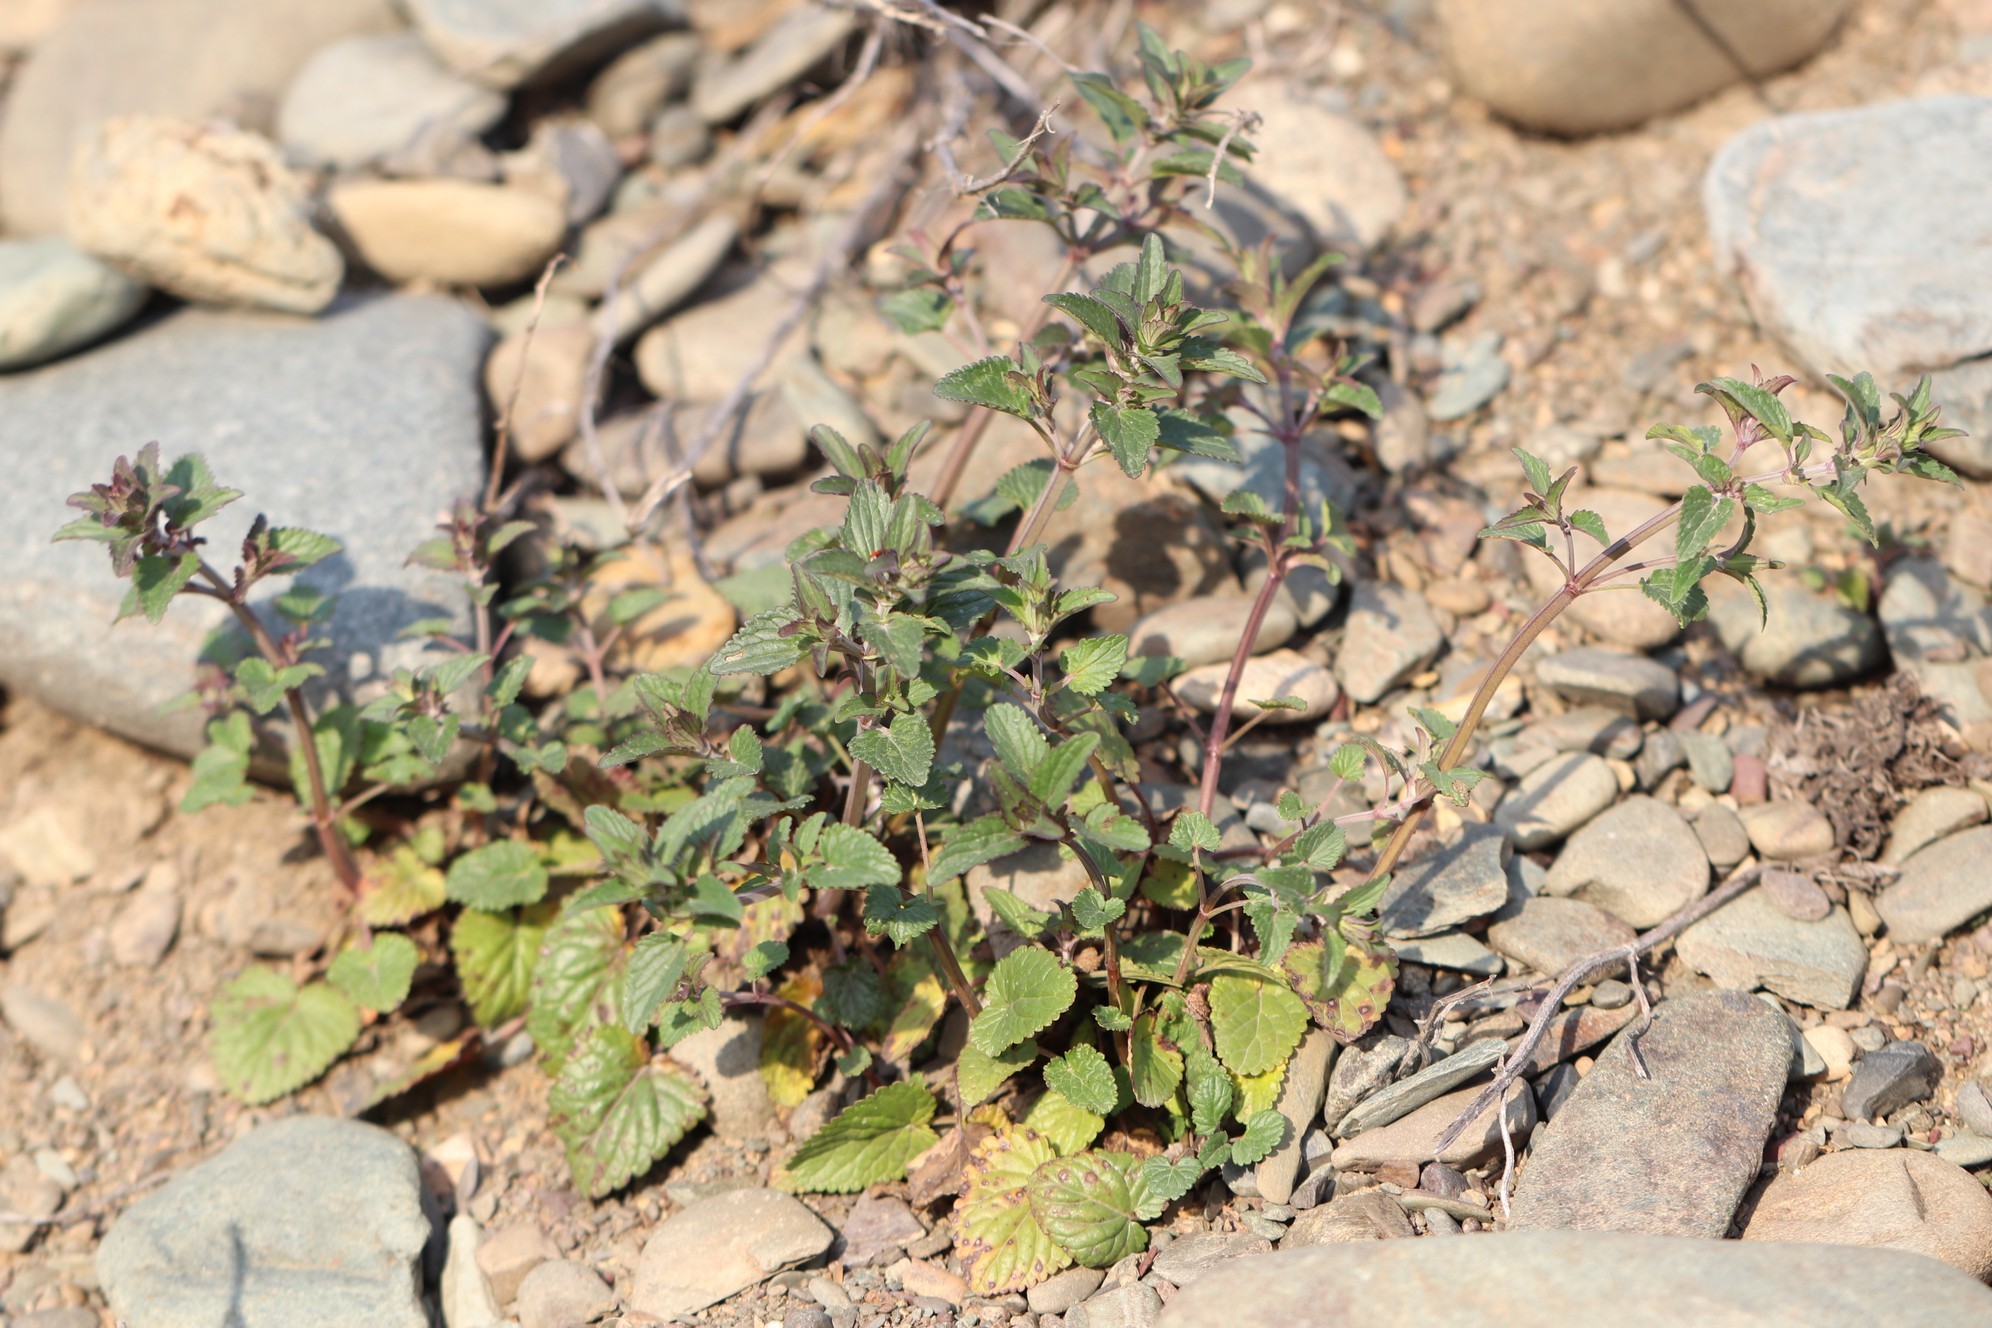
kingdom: Plantae
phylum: Tracheophyta
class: Magnoliopsida
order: Lamiales
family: Lamiaceae
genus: Dracocephalum
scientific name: Dracocephalum nutans
